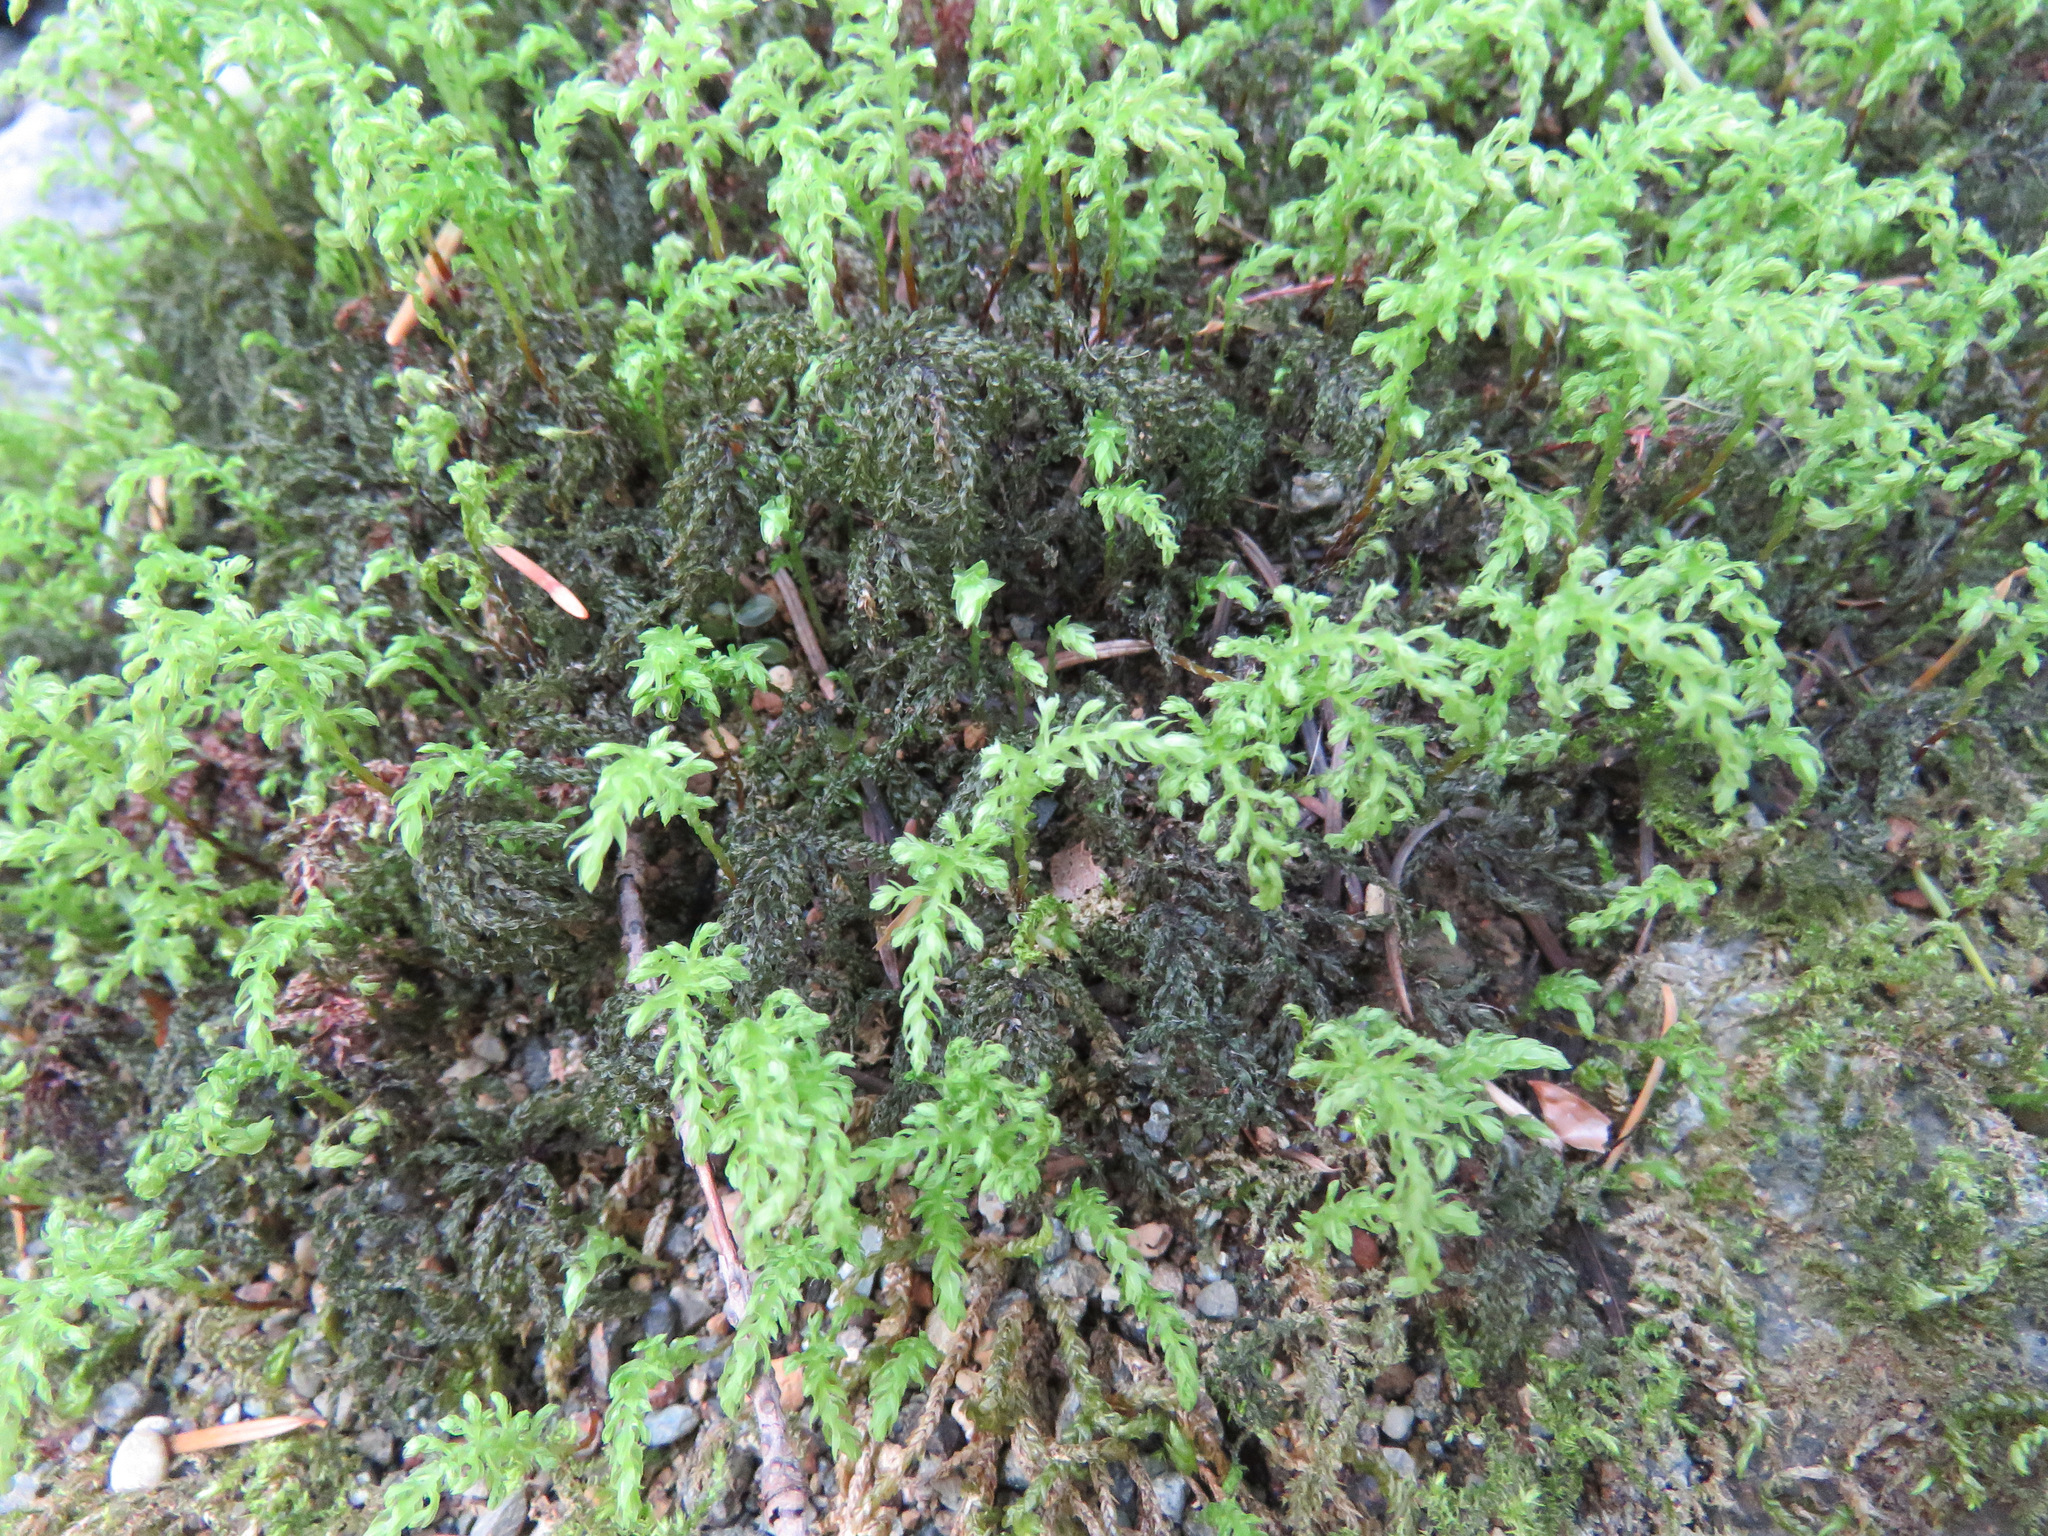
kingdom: Plantae
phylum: Bryophyta
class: Bryopsida
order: Bryales
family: Mniaceae
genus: Leucolepis
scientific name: Leucolepis acanthoneura
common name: Leucolepis umbrella moss
